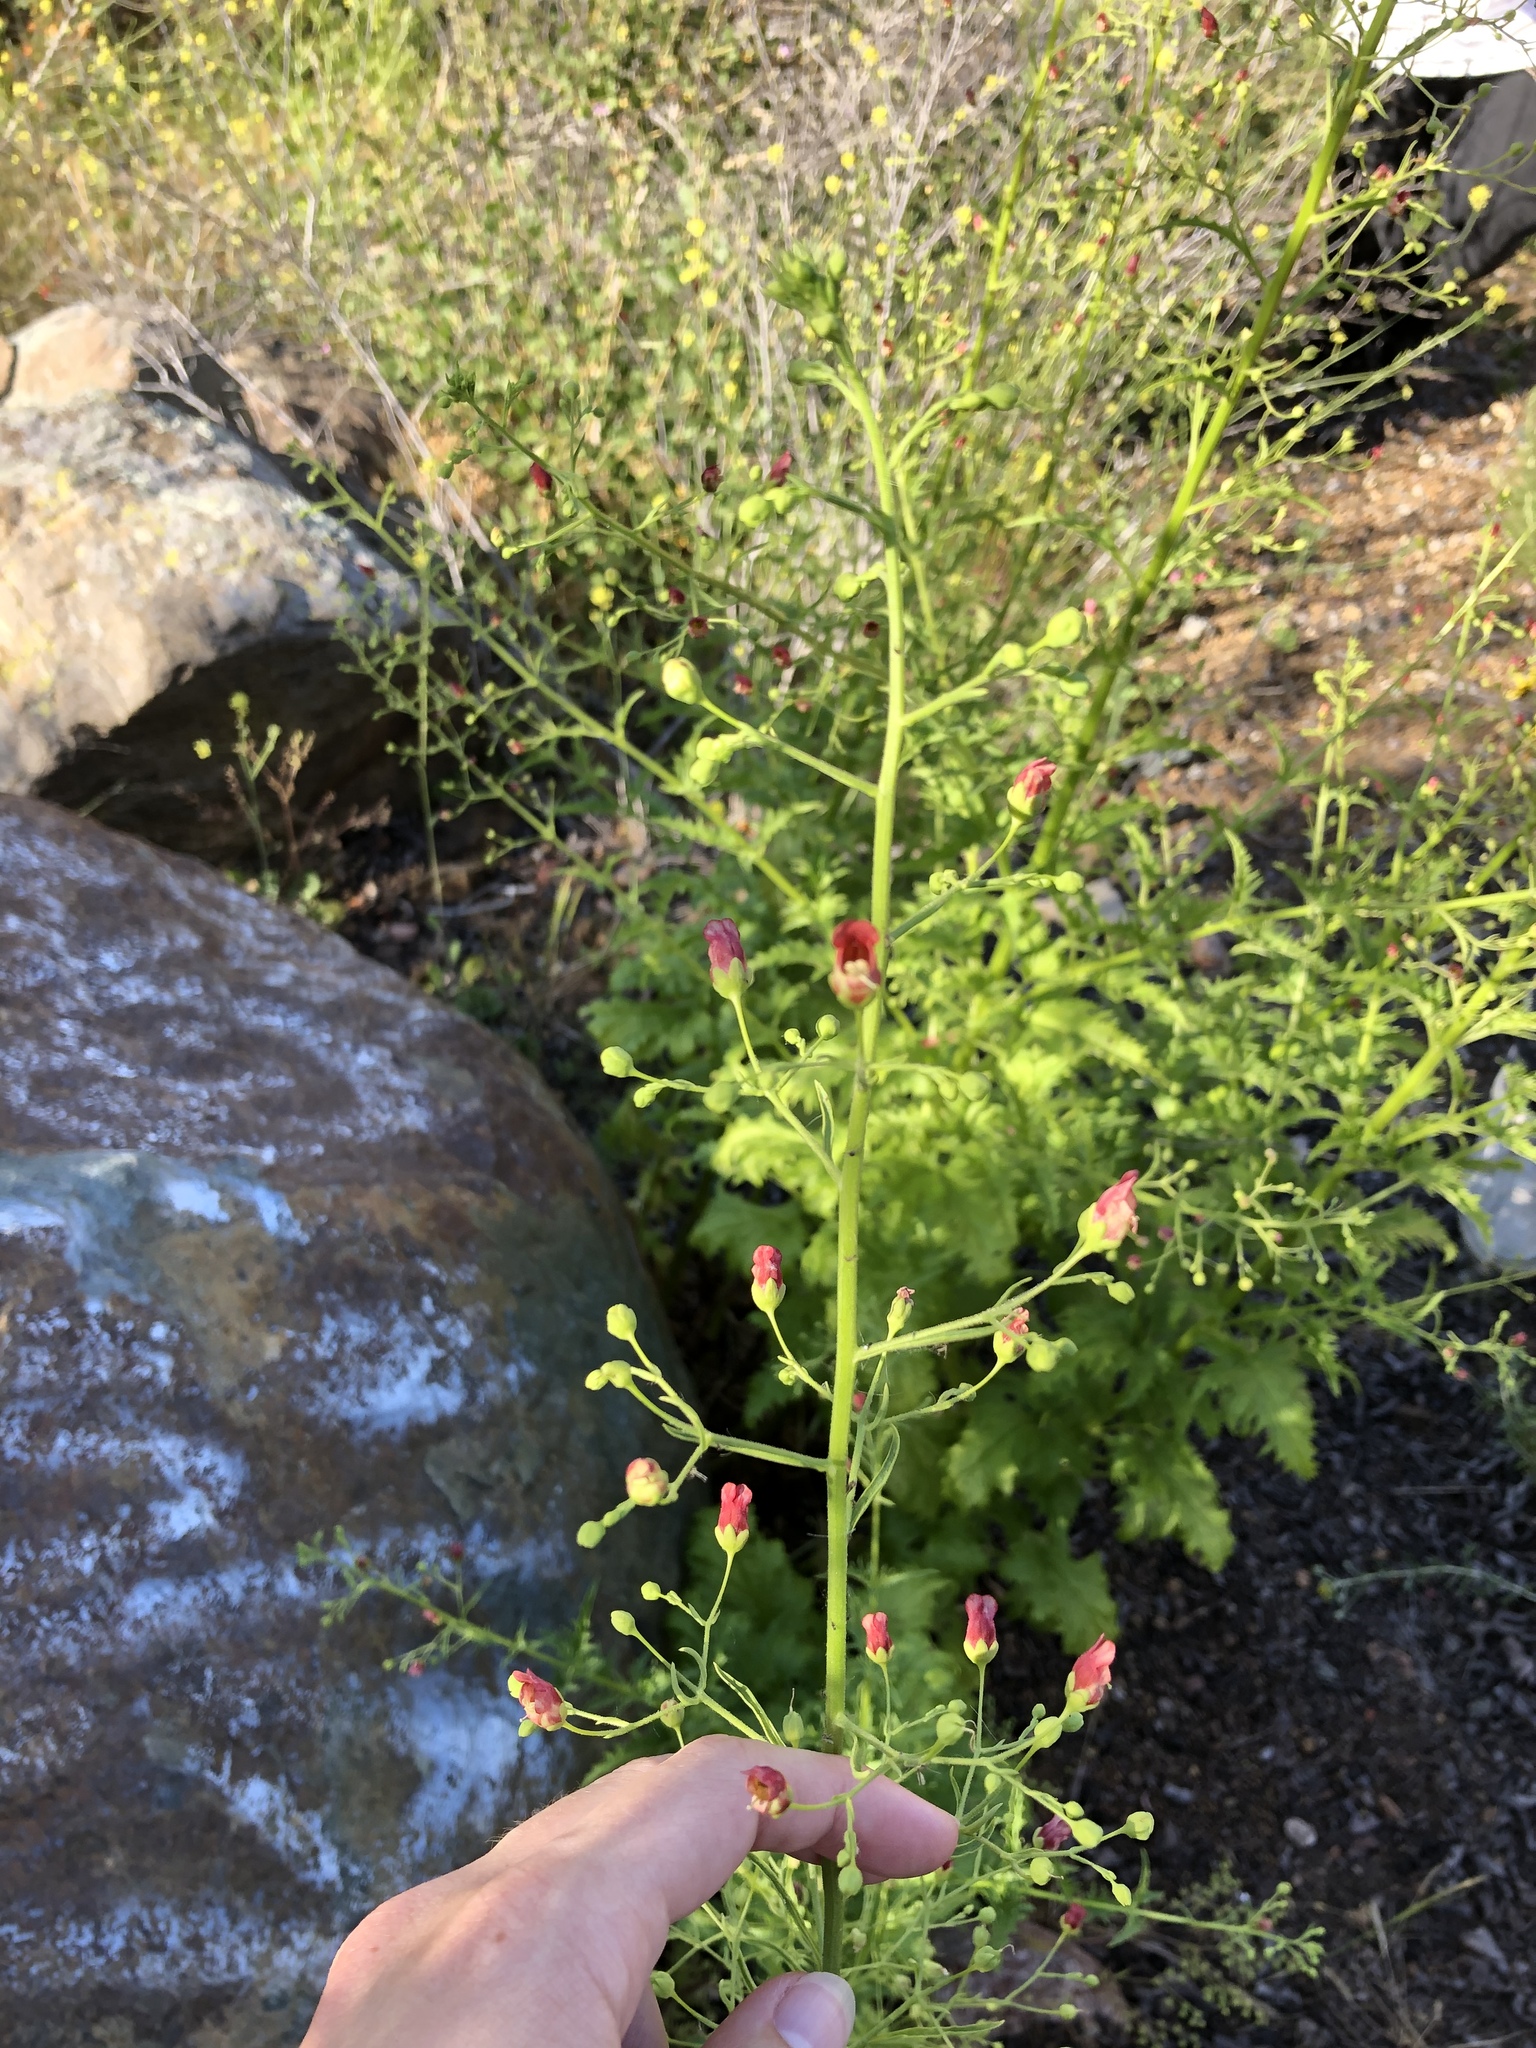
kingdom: Plantae
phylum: Tracheophyta
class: Magnoliopsida
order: Lamiales
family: Scrophulariaceae
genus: Scrophularia
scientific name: Scrophularia californica
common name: California figwort
